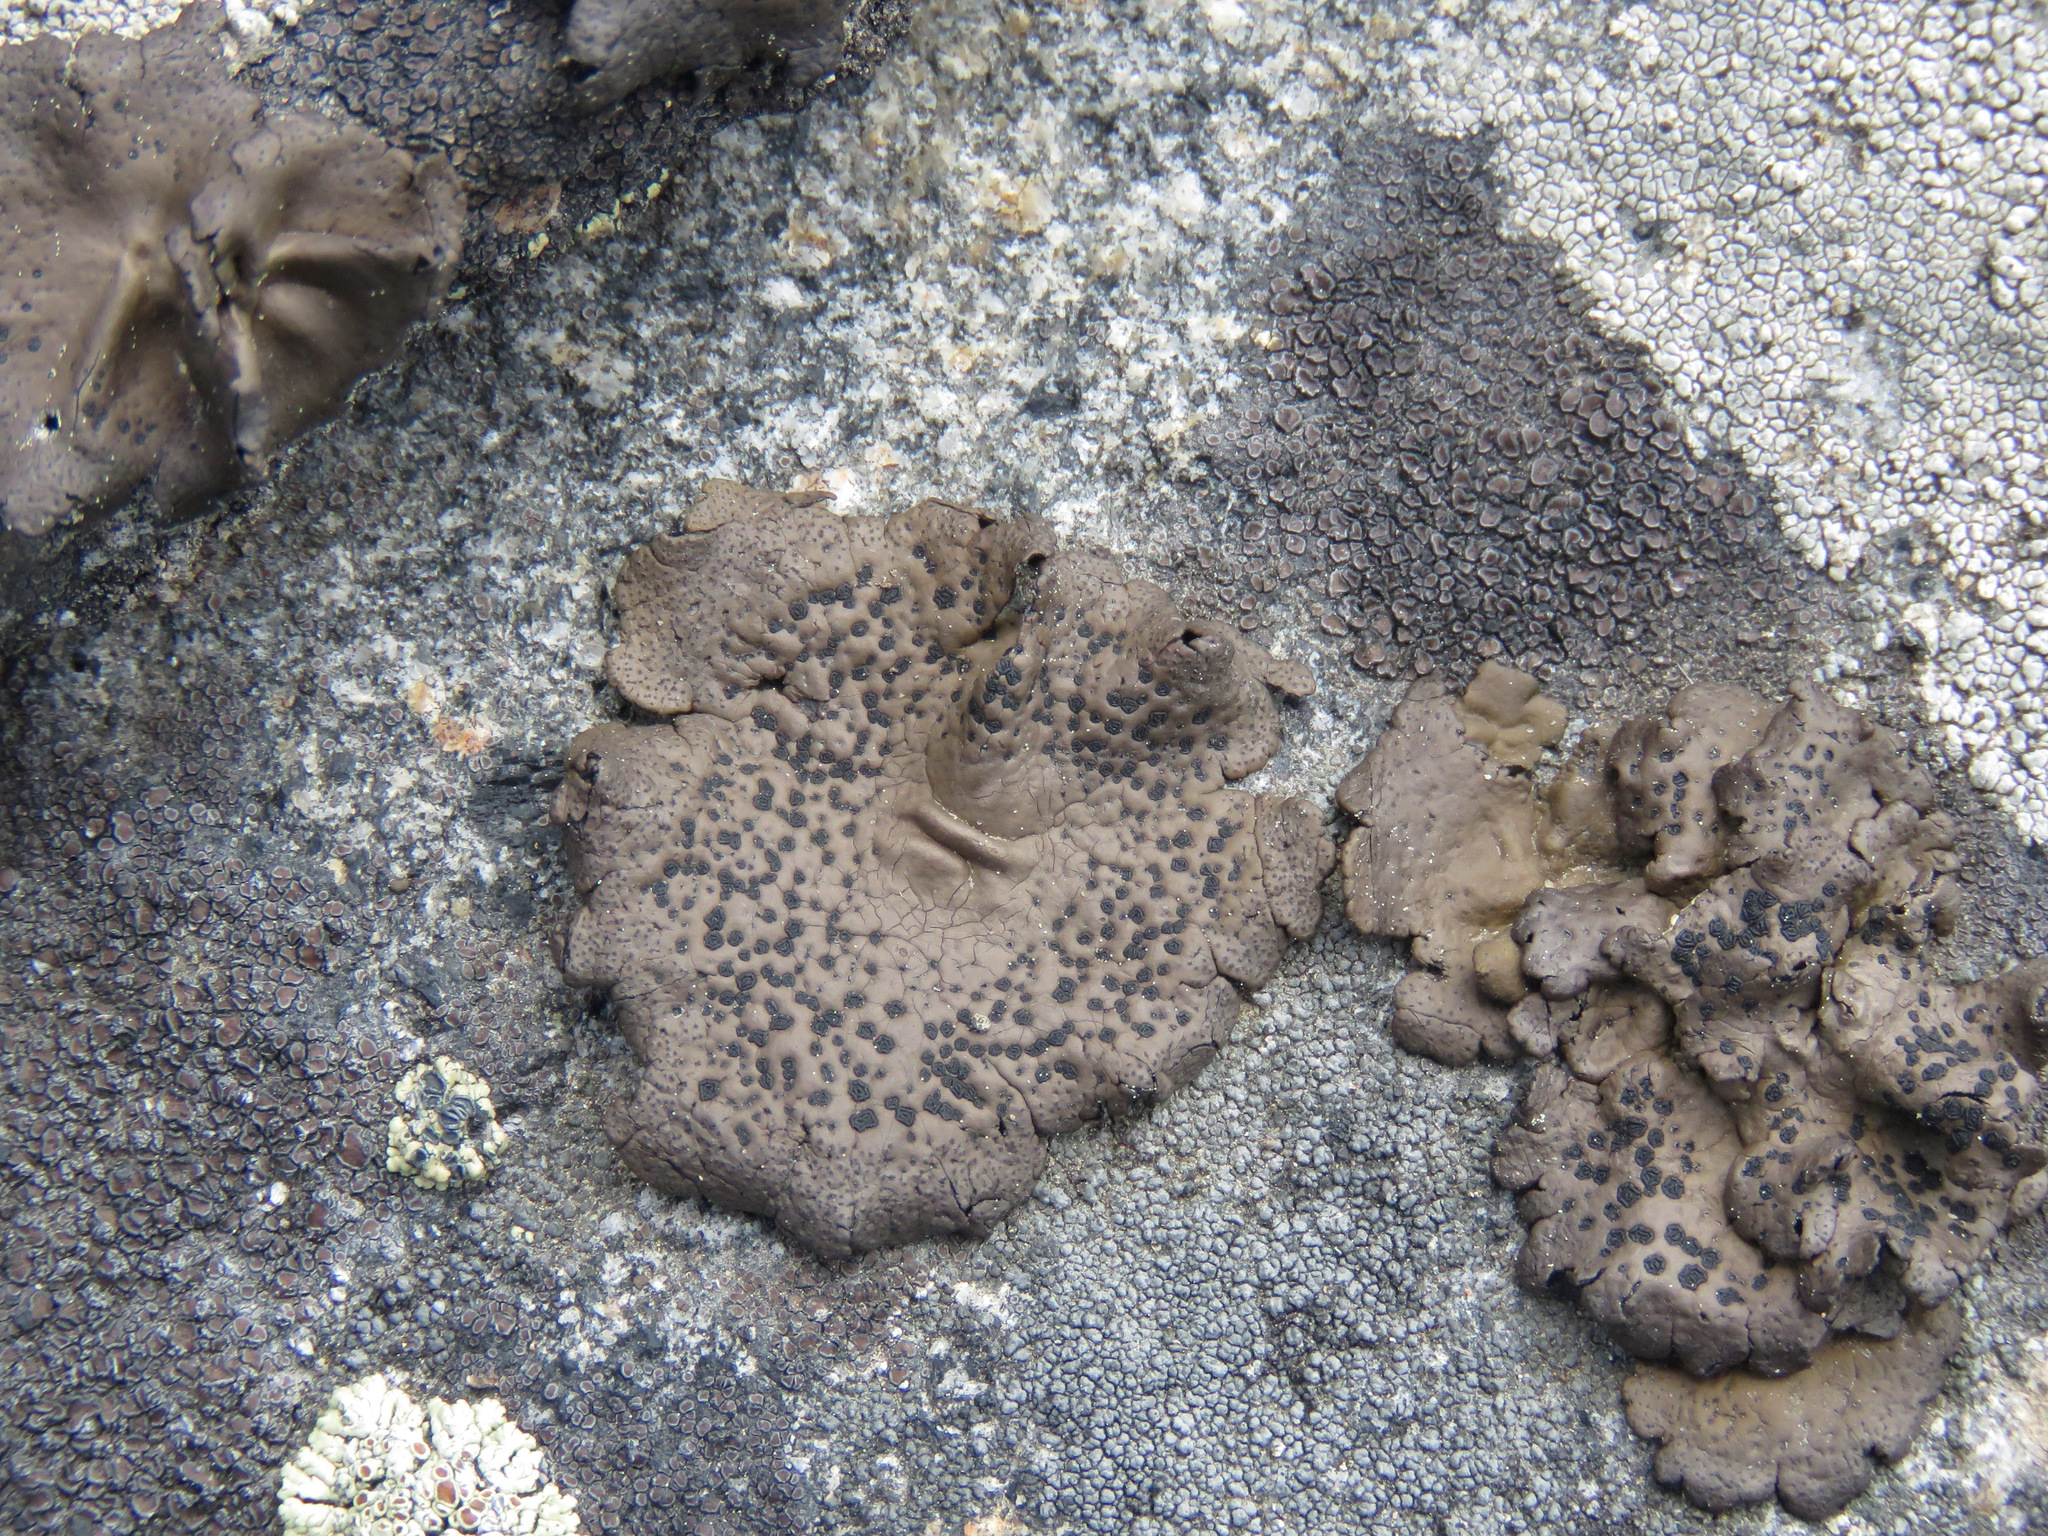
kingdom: Fungi
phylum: Ascomycota
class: Lecanoromycetes
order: Umbilicariales
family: Umbilicariaceae
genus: Umbilicaria
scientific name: Umbilicaria phaea
